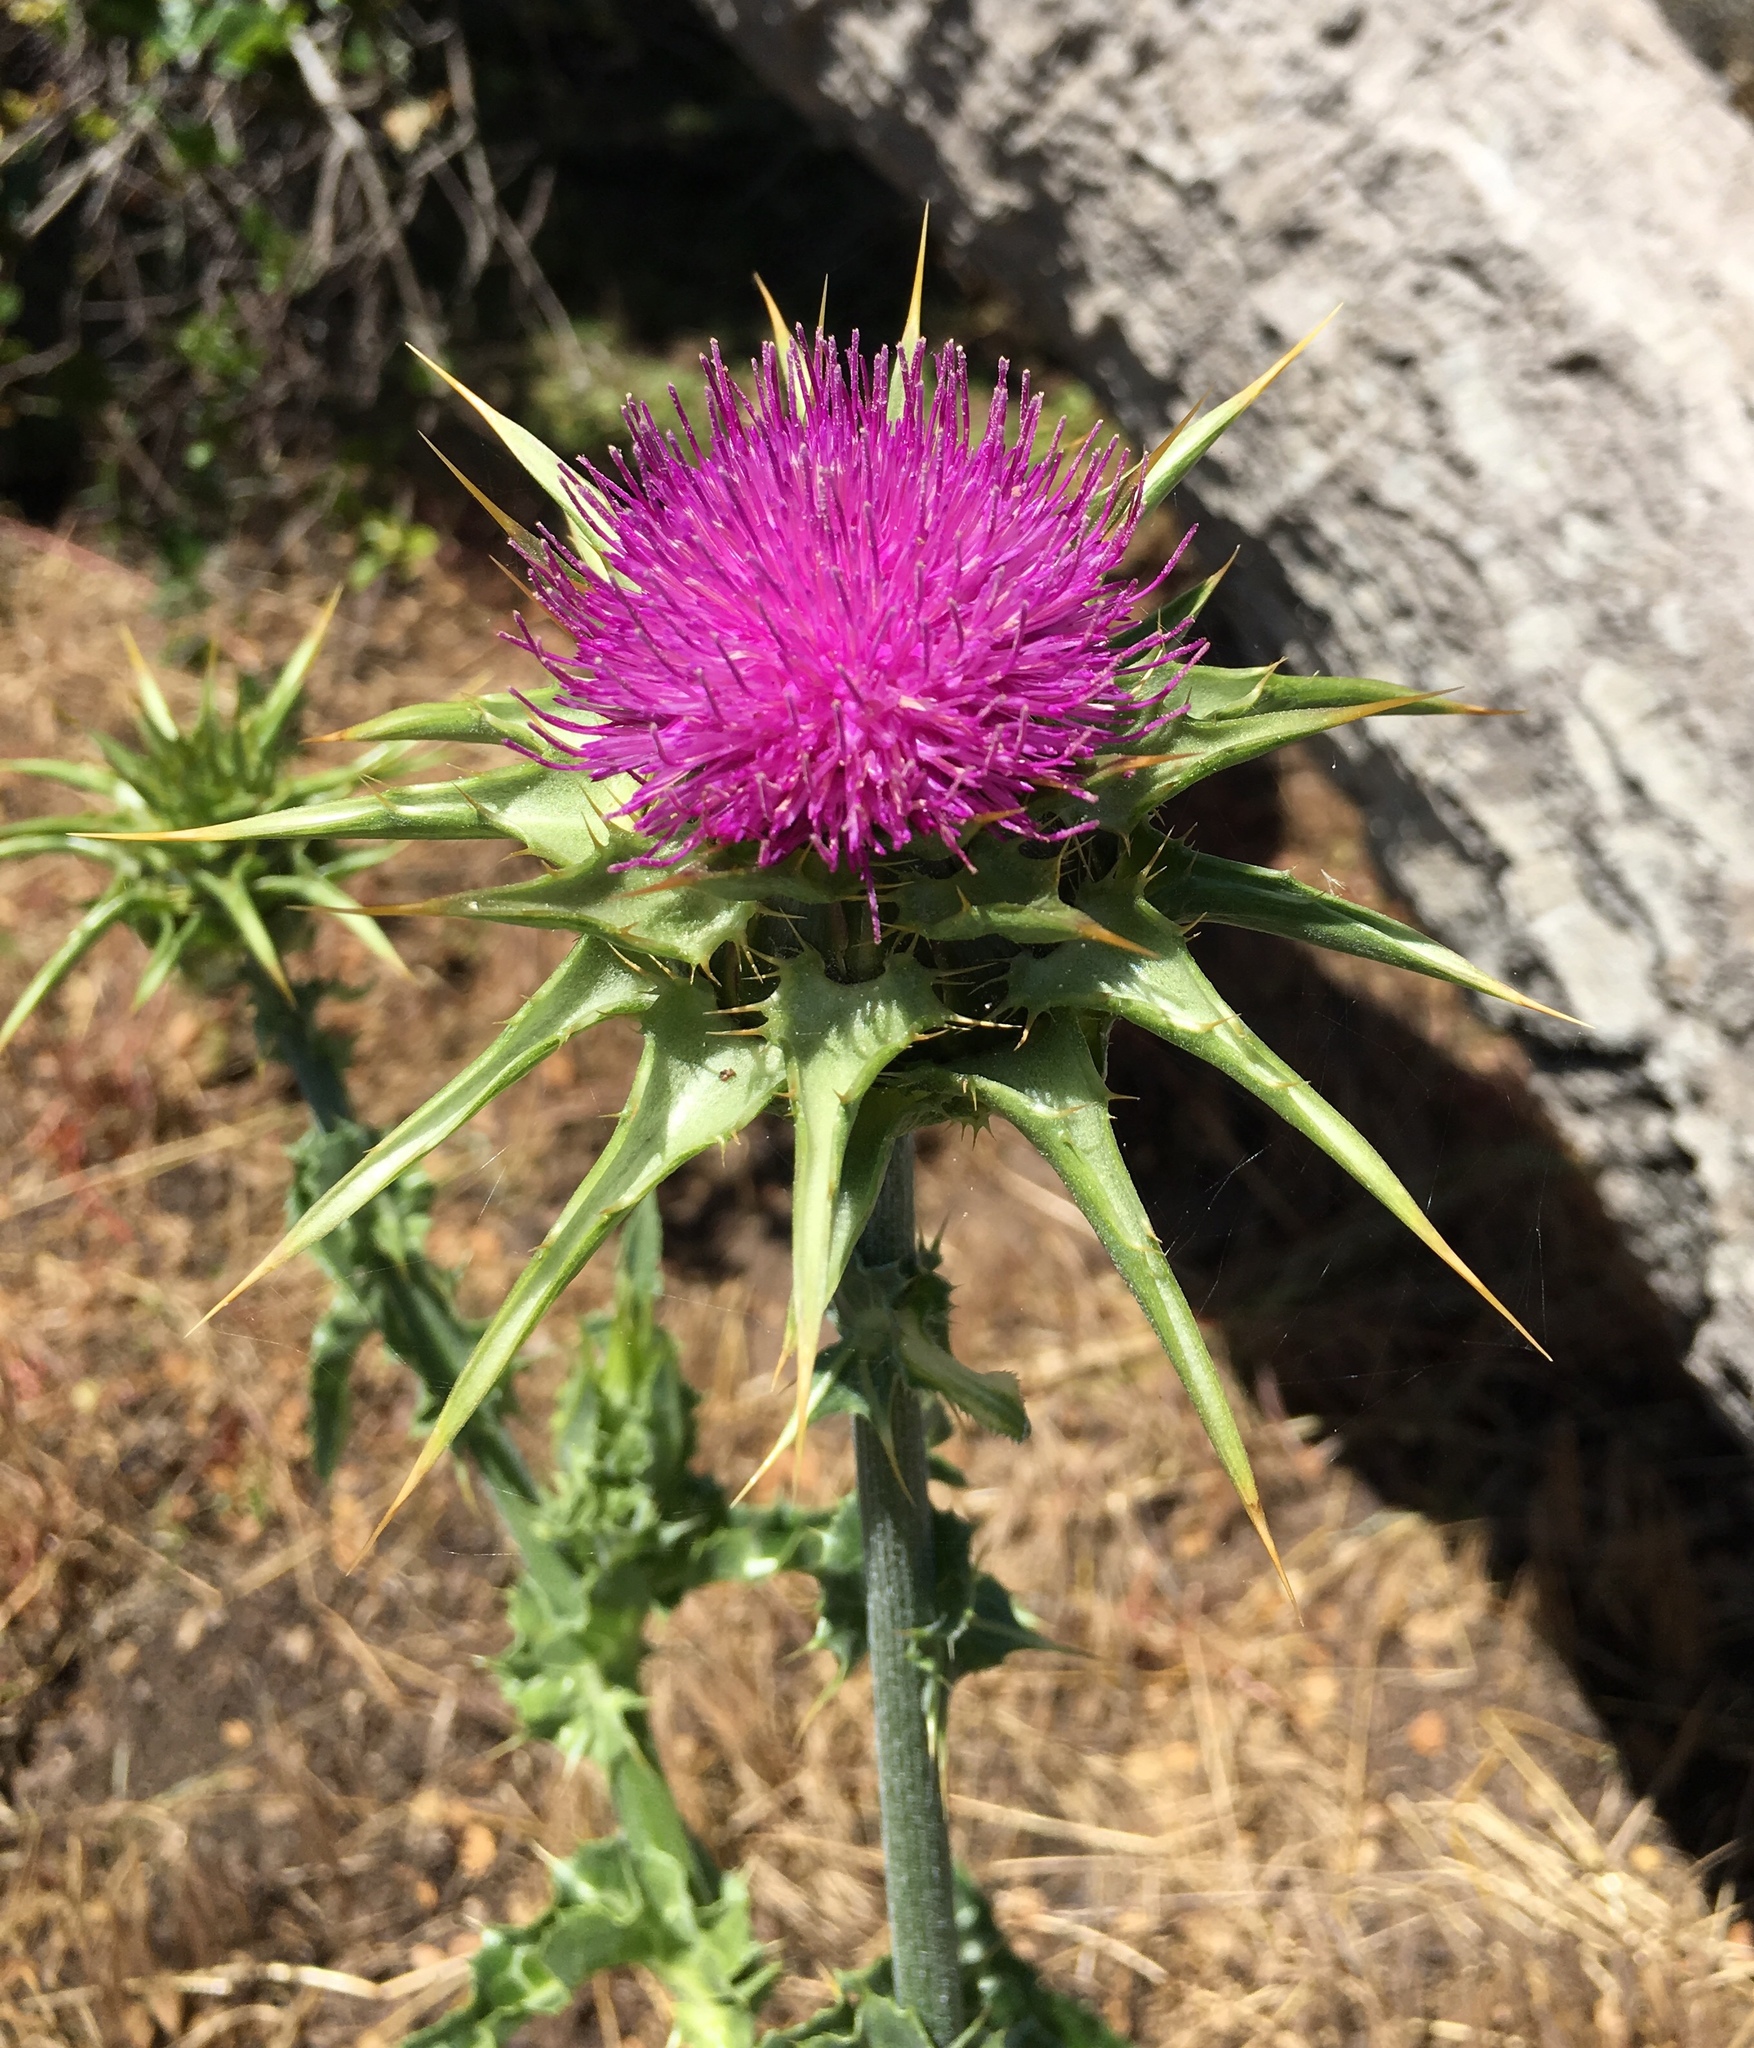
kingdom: Plantae
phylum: Tracheophyta
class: Magnoliopsida
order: Asterales
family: Asteraceae
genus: Silybum
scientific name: Silybum marianum
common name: Milk thistle
